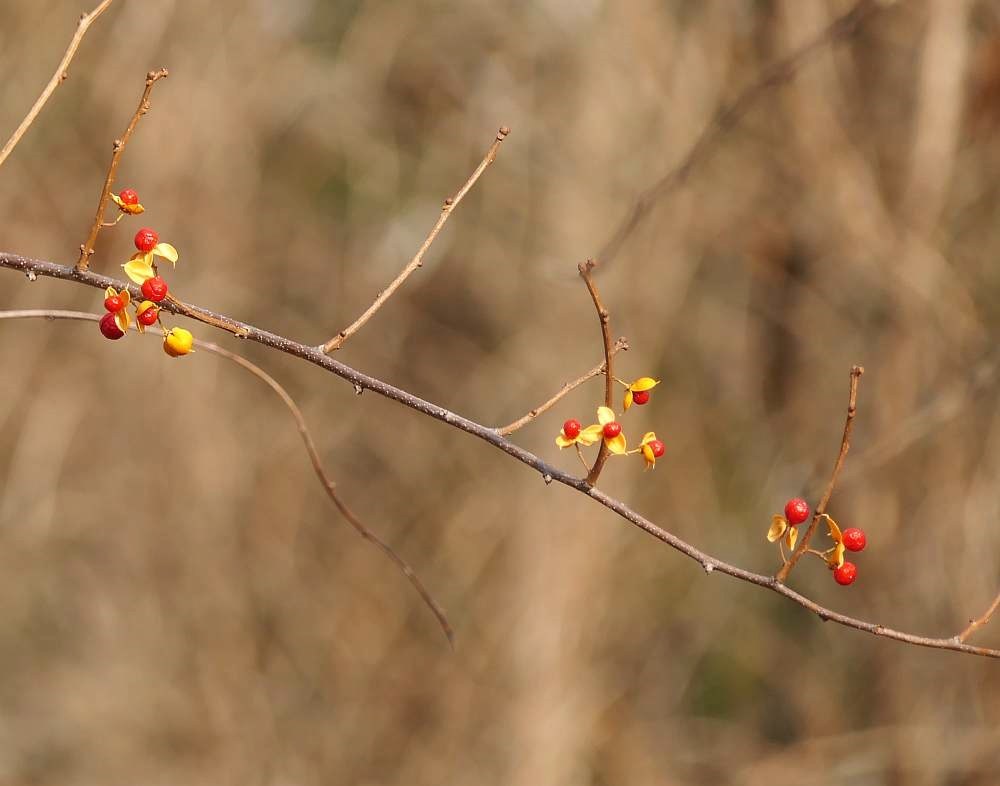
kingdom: Plantae
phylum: Tracheophyta
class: Magnoliopsida
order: Celastrales
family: Celastraceae
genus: Celastrus
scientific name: Celastrus orbiculatus
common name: Oriental bittersweet
